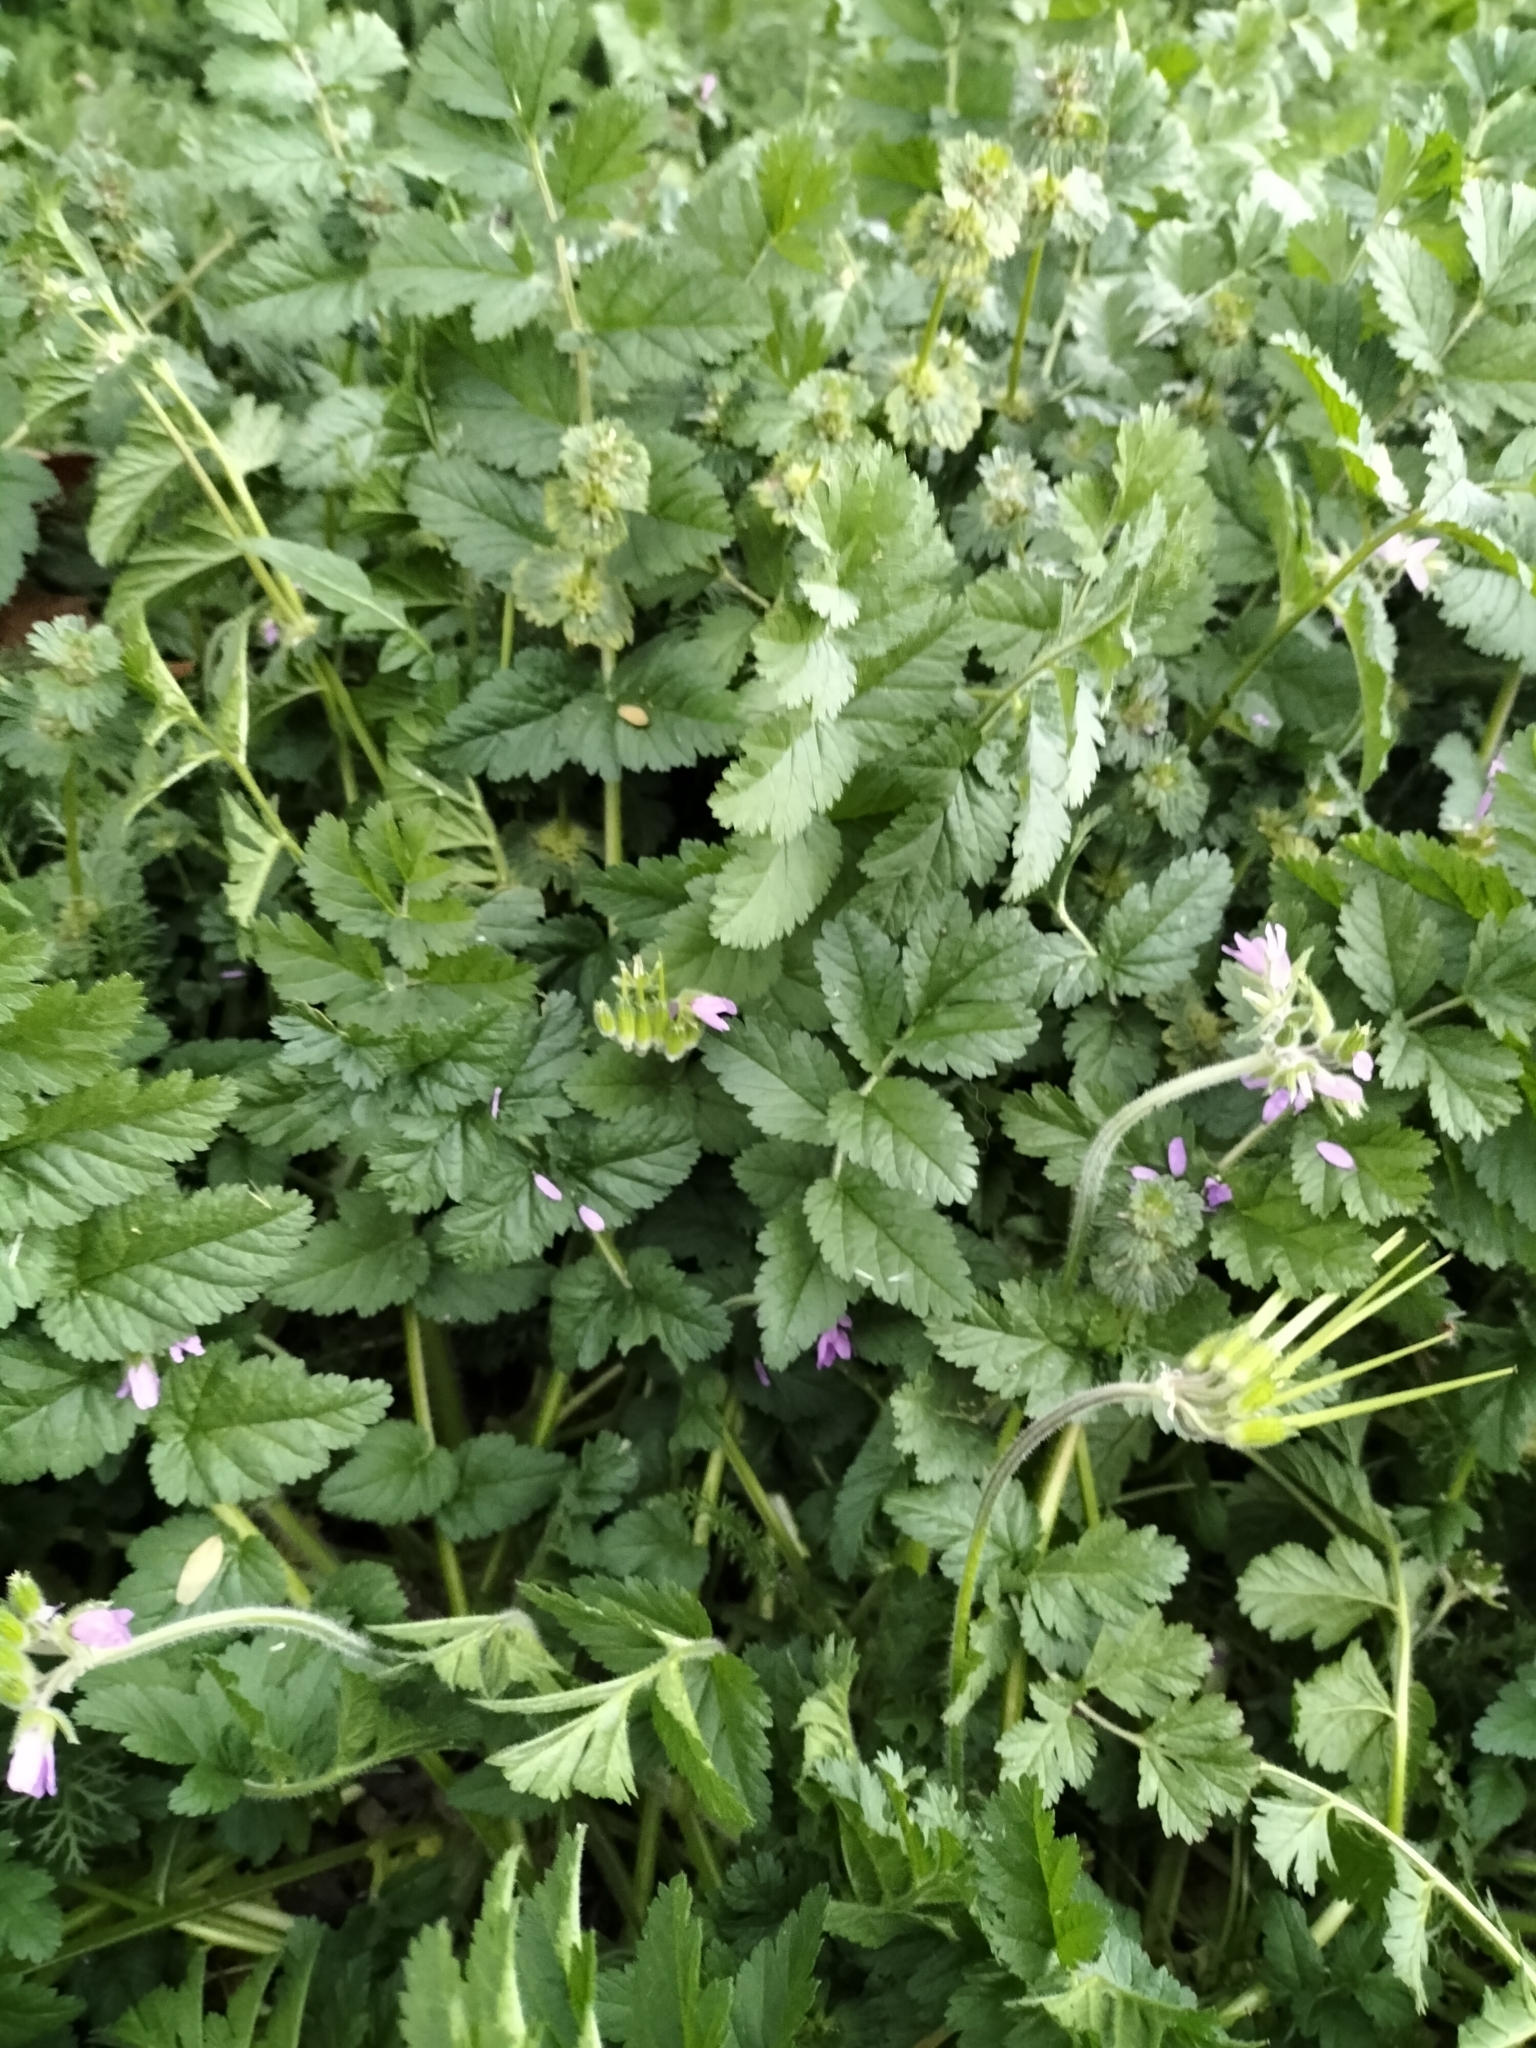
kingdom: Plantae
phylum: Tracheophyta
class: Magnoliopsida
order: Geraniales
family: Geraniaceae
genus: Erodium
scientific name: Erodium moschatum
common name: Musk stork's-bill
